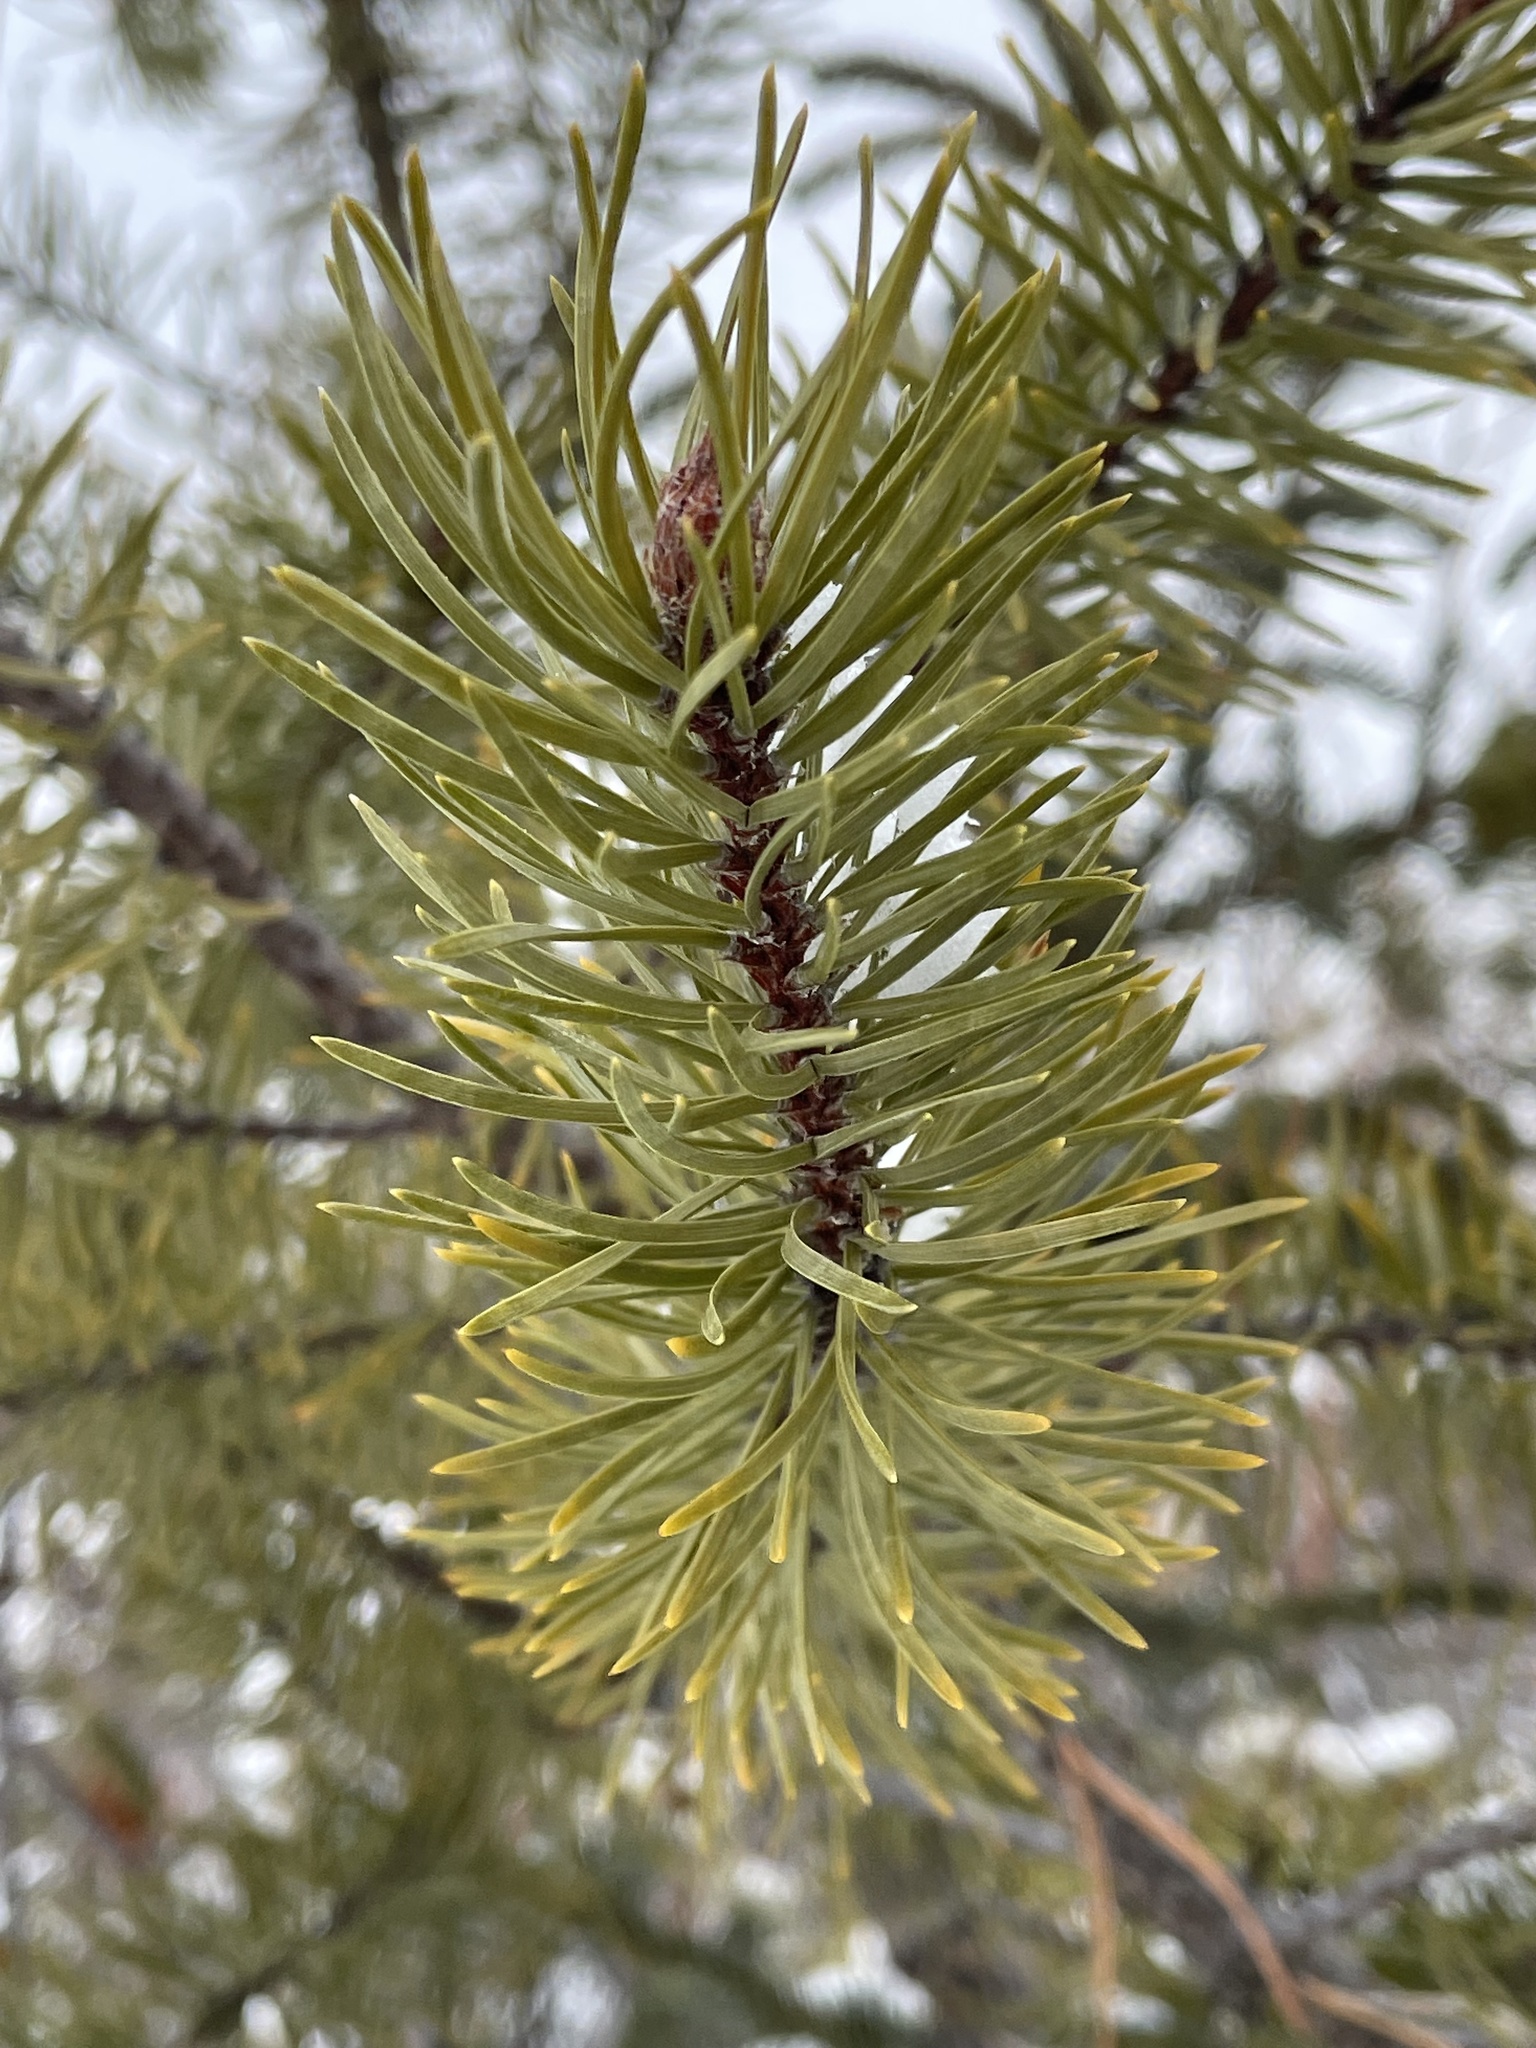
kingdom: Plantae
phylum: Tracheophyta
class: Pinopsida
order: Pinales
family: Pinaceae
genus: Pinus
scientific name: Pinus banksiana
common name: Jack pine
